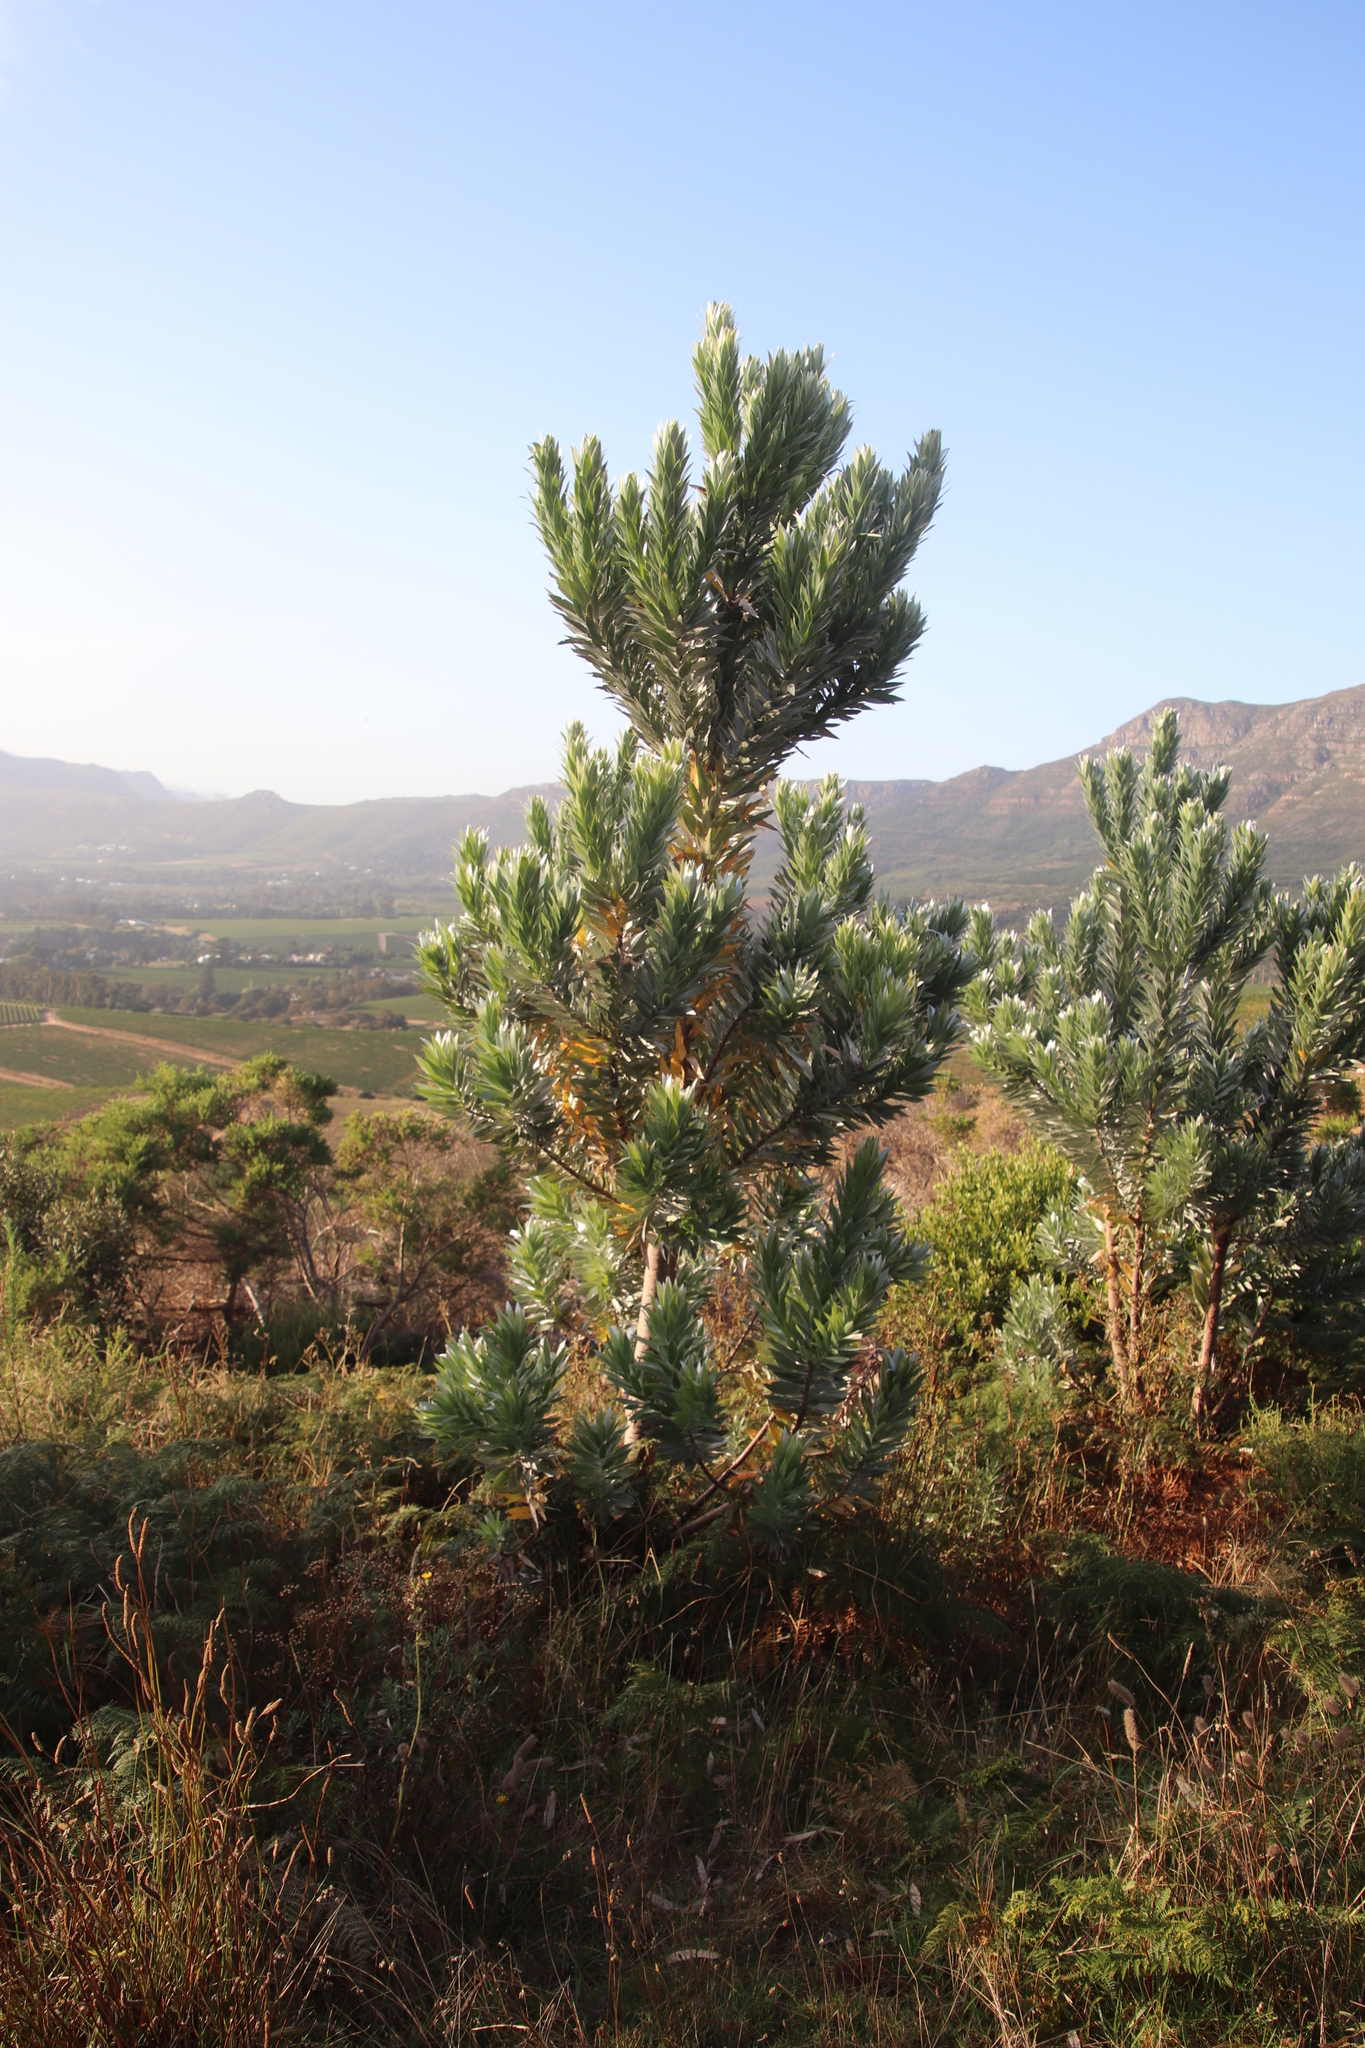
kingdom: Plantae
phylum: Tracheophyta
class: Magnoliopsida
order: Proteales
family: Proteaceae
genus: Leucadendron
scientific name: Leucadendron argenteum
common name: Cape silver tree
